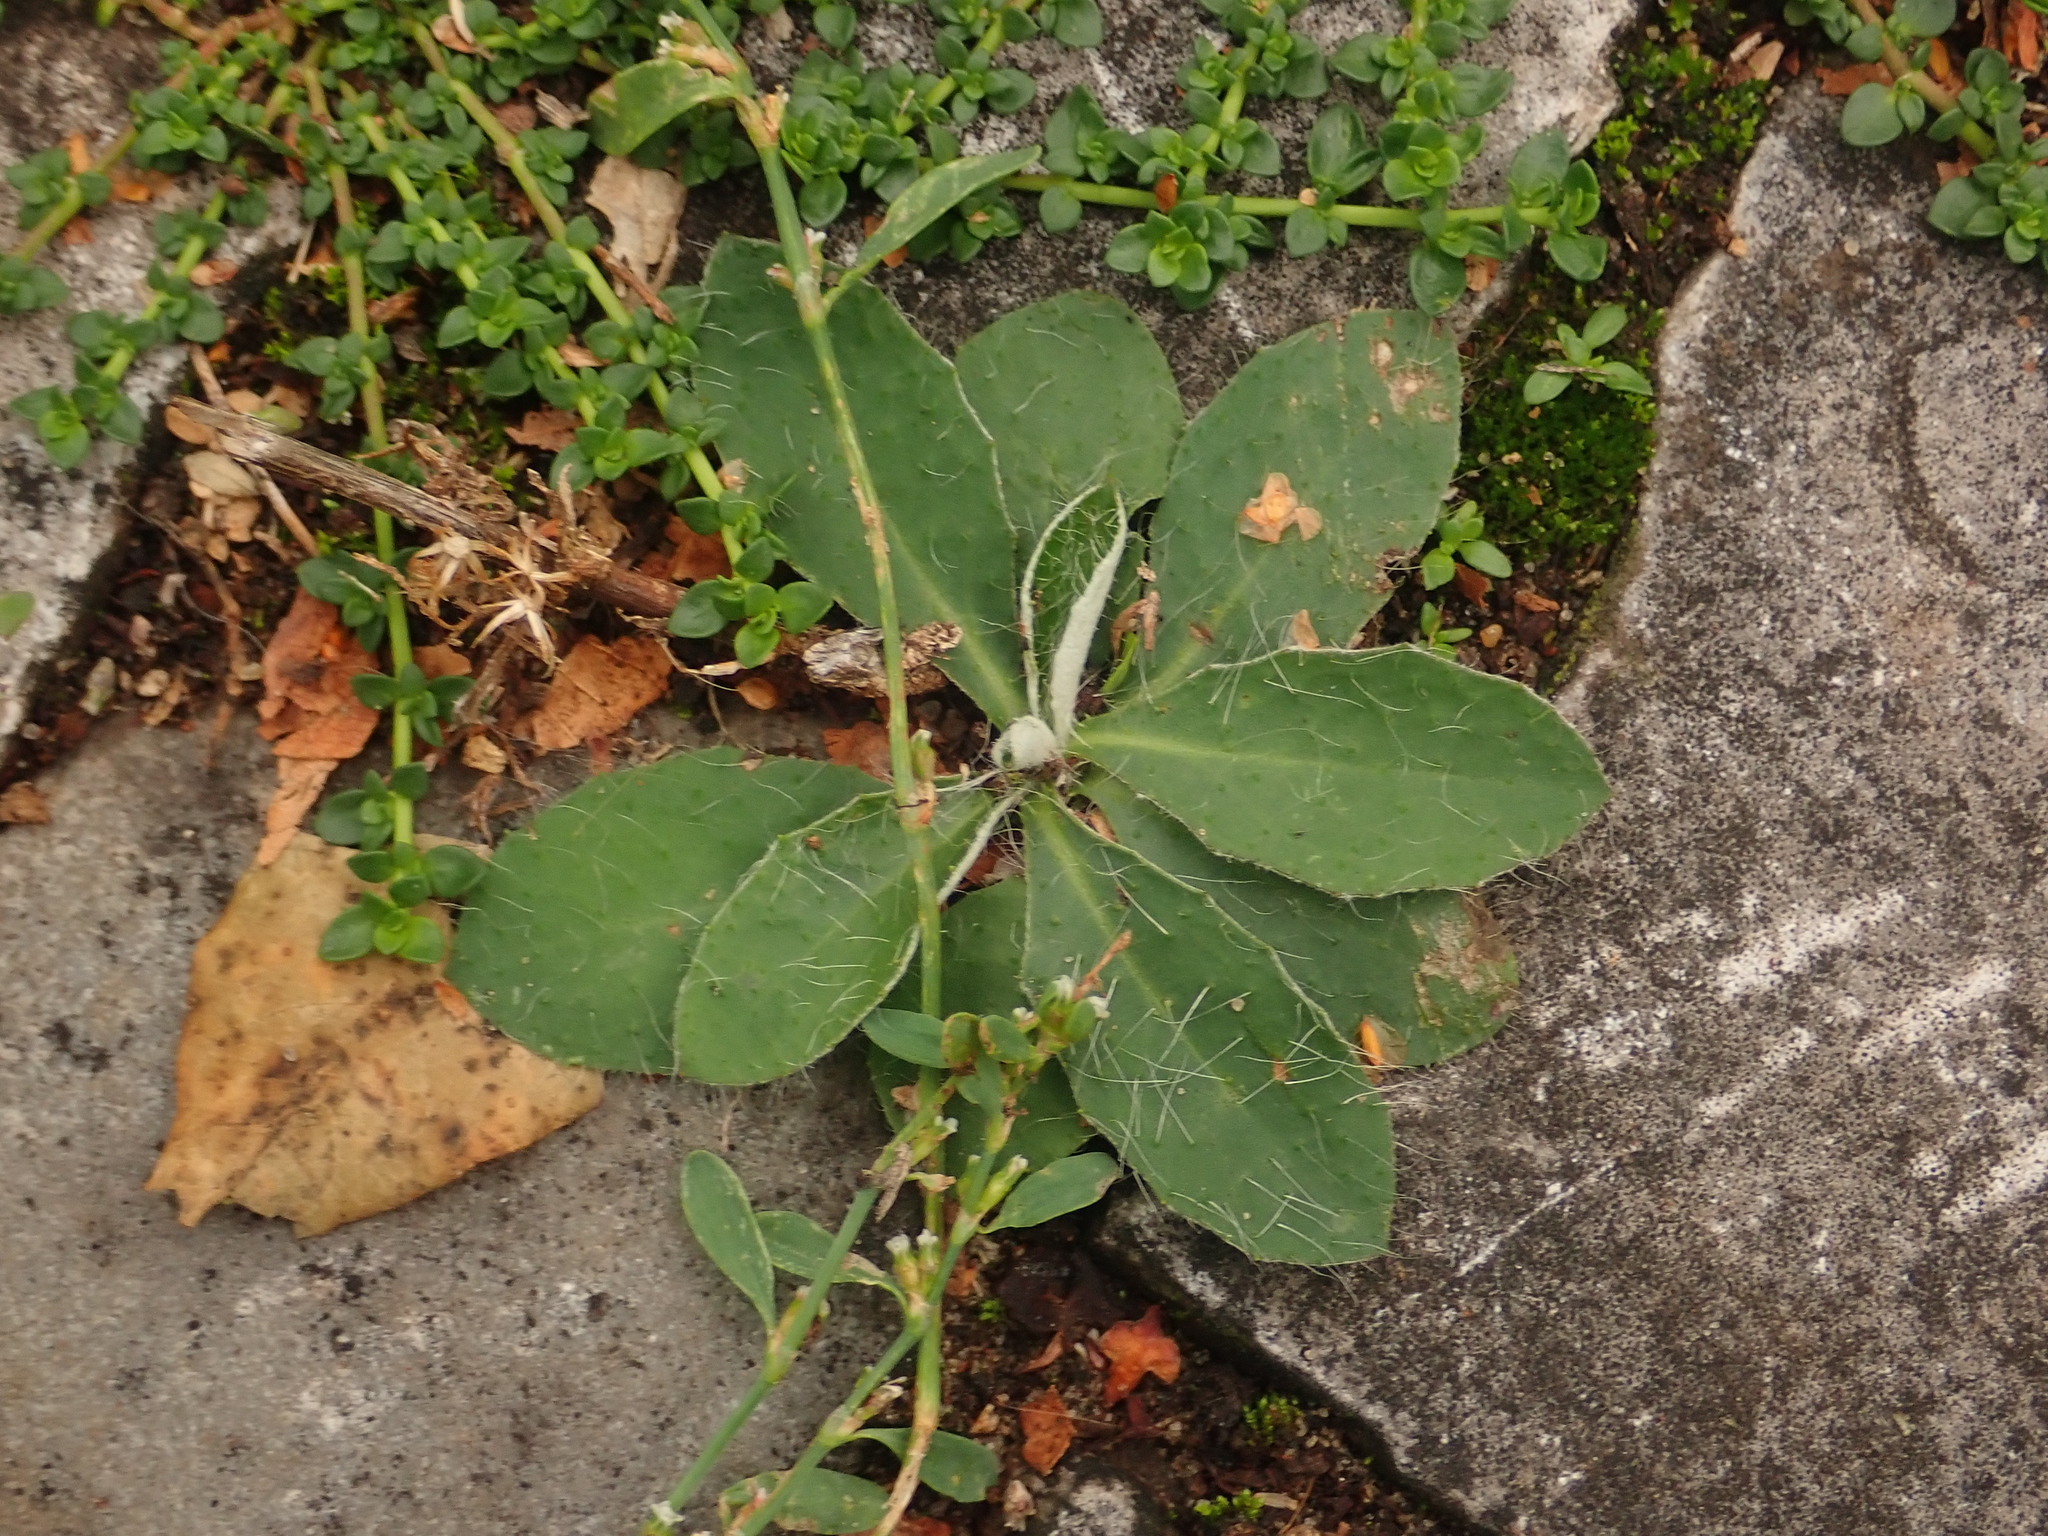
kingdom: Plantae
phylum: Tracheophyta
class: Magnoliopsida
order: Asterales
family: Asteraceae
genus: Pilosella
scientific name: Pilosella officinarum
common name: Mouse-ear hawkweed
